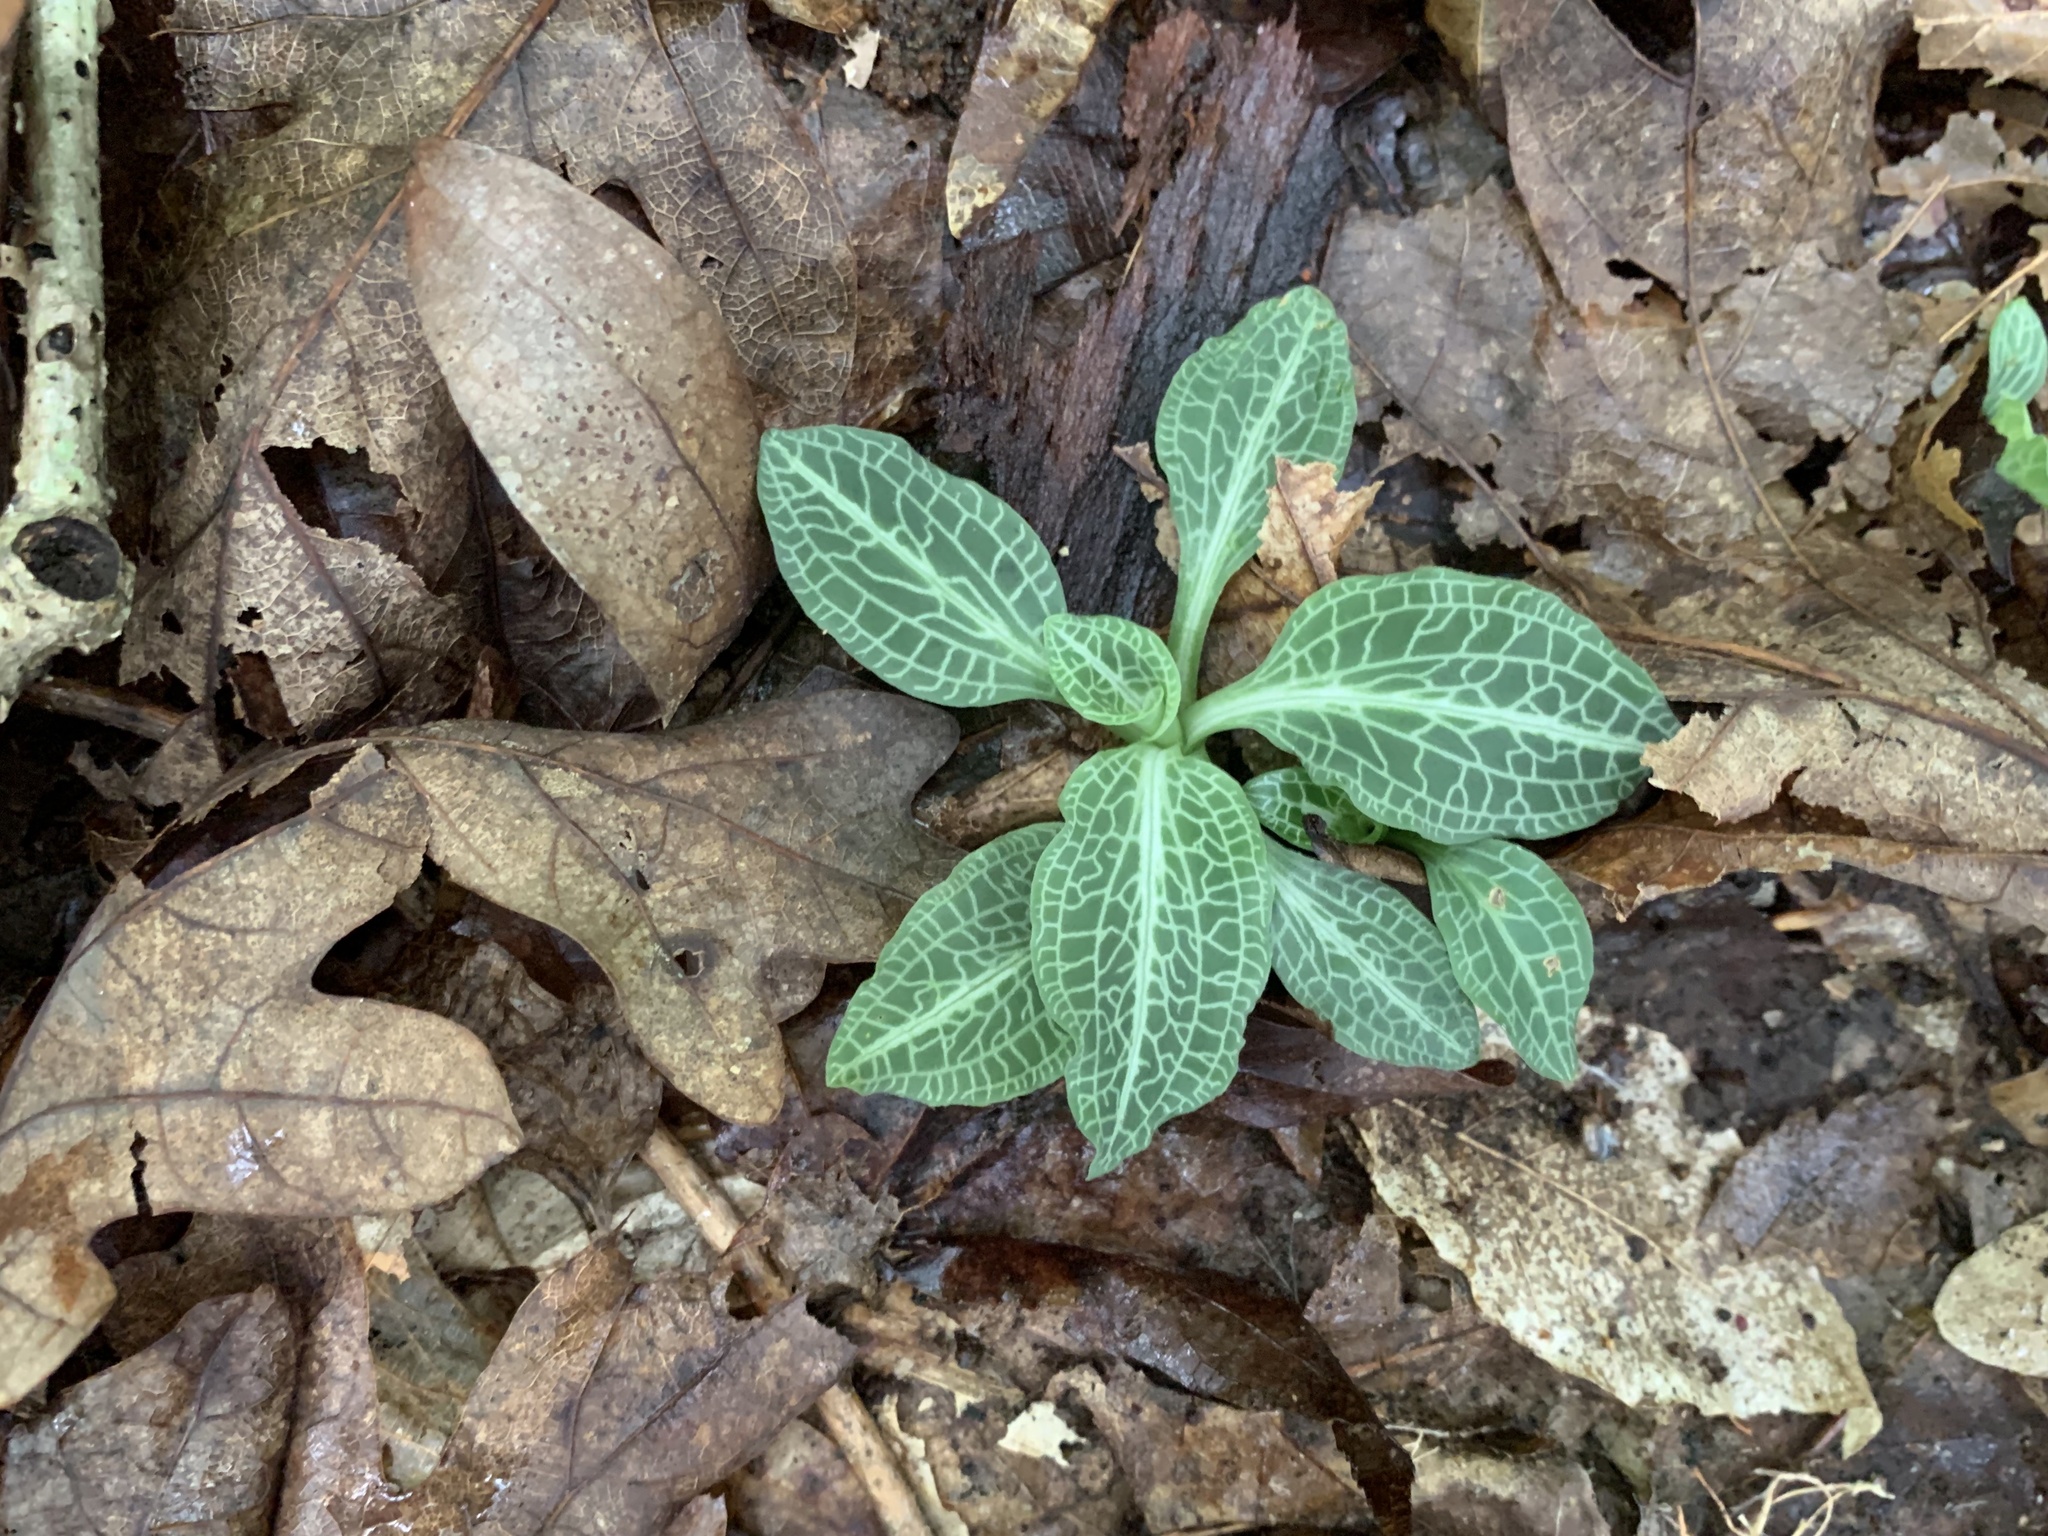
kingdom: Plantae
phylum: Tracheophyta
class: Liliopsida
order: Asparagales
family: Orchidaceae
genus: Goodyera
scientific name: Goodyera pubescens
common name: Downy rattlesnake-plantain
